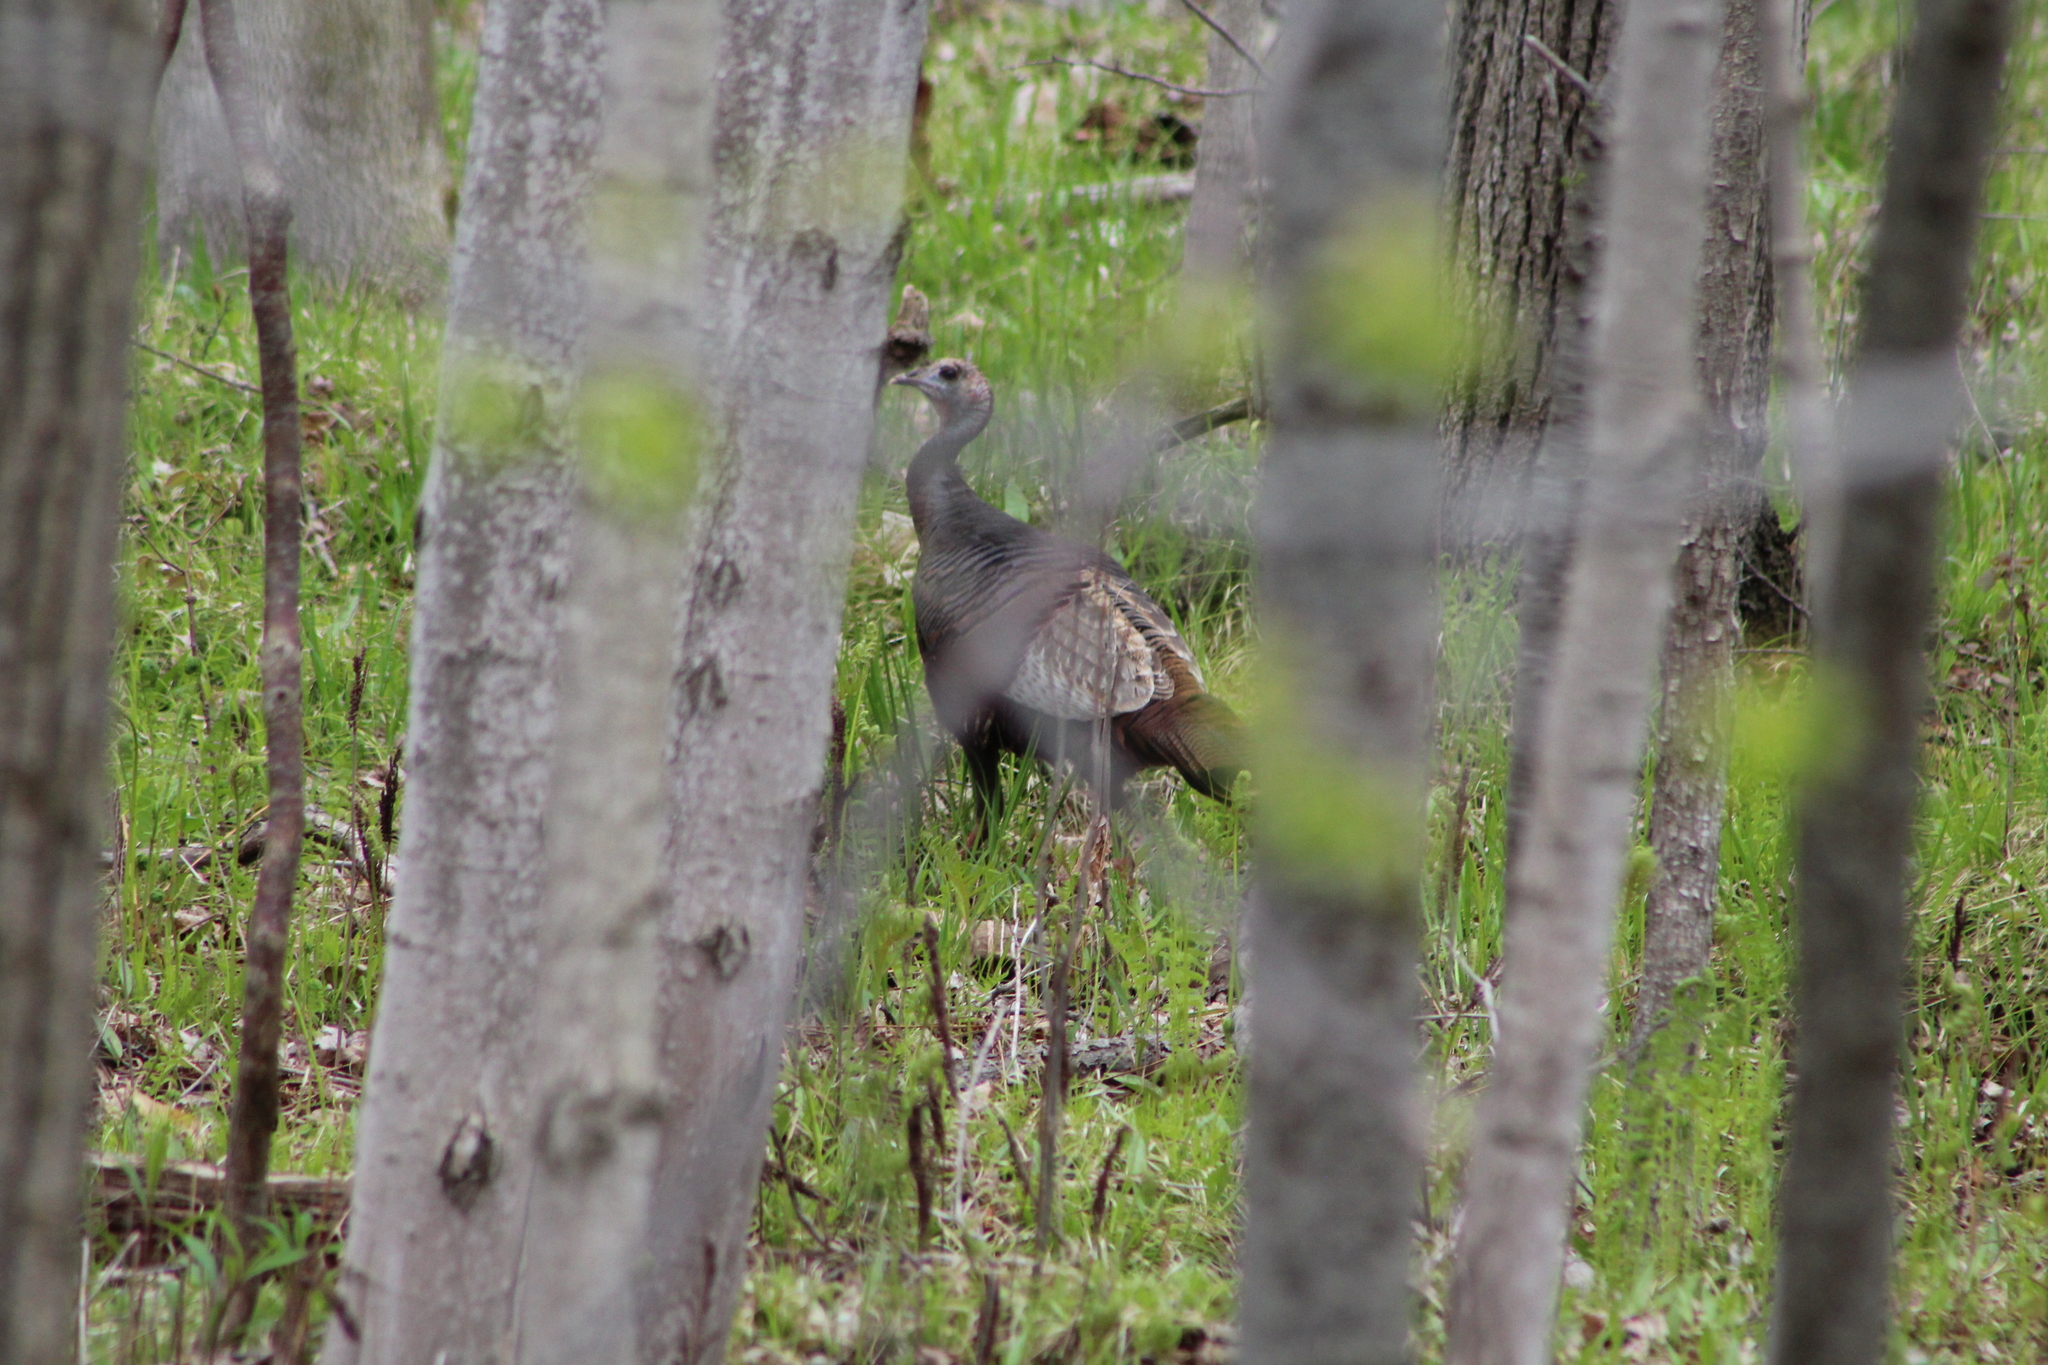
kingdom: Animalia
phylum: Chordata
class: Aves
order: Galliformes
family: Phasianidae
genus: Meleagris
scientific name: Meleagris gallopavo
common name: Wild turkey
